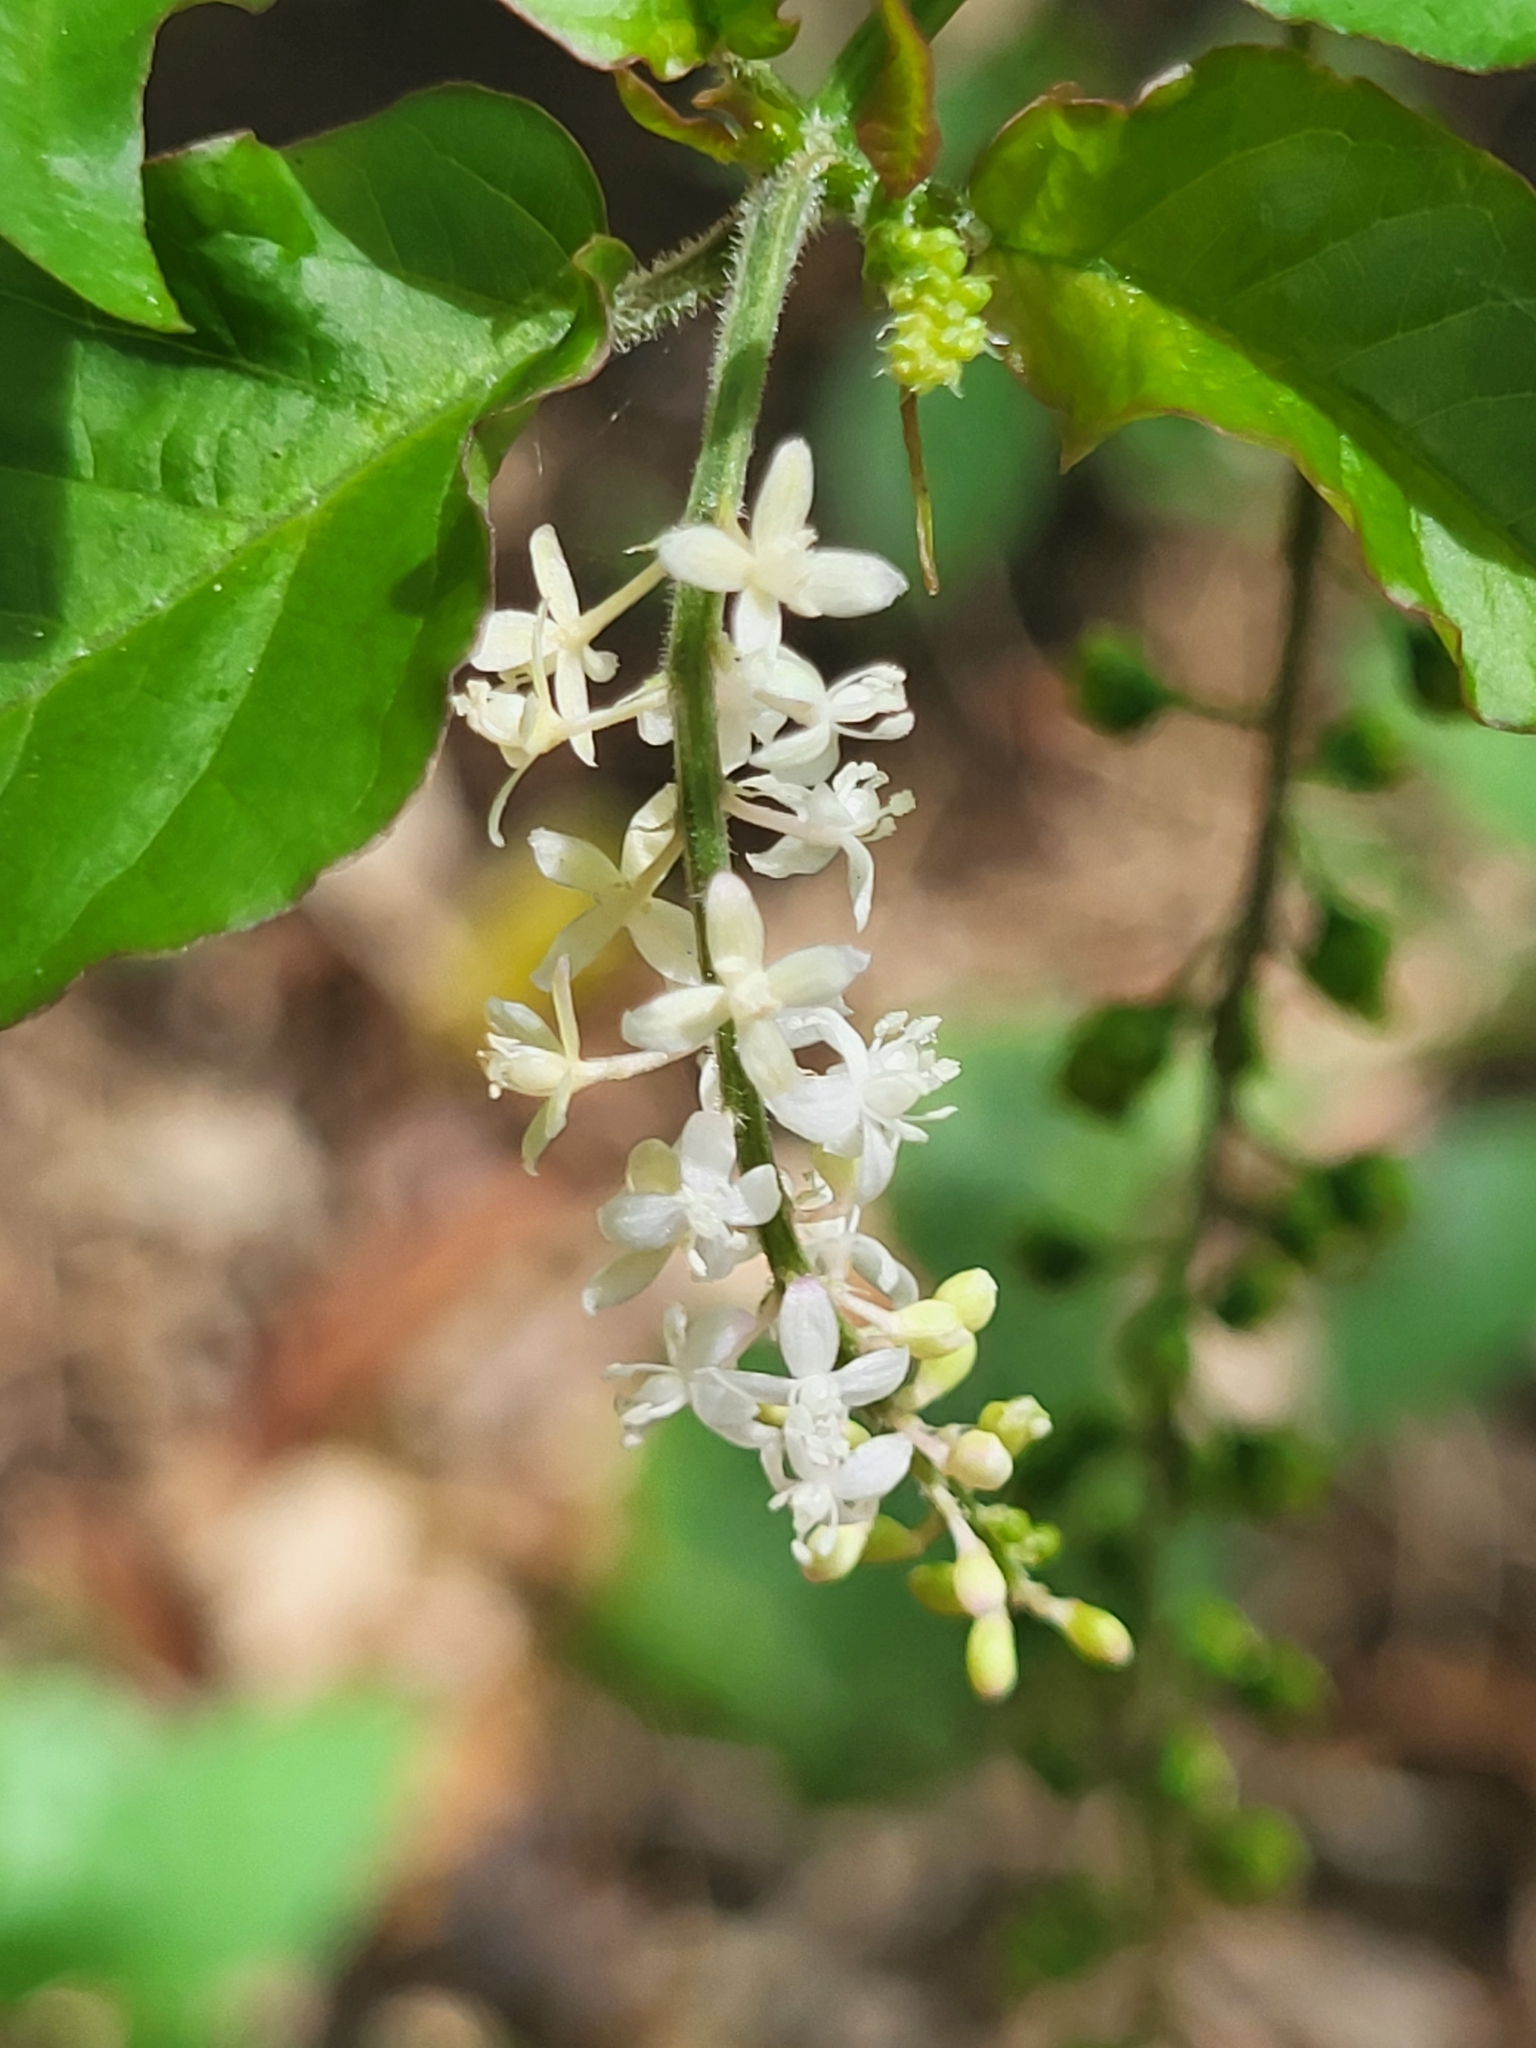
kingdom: Plantae
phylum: Tracheophyta
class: Magnoliopsida
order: Caryophyllales
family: Phytolaccaceae
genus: Rivina
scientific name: Rivina humilis
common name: Rougeplant
